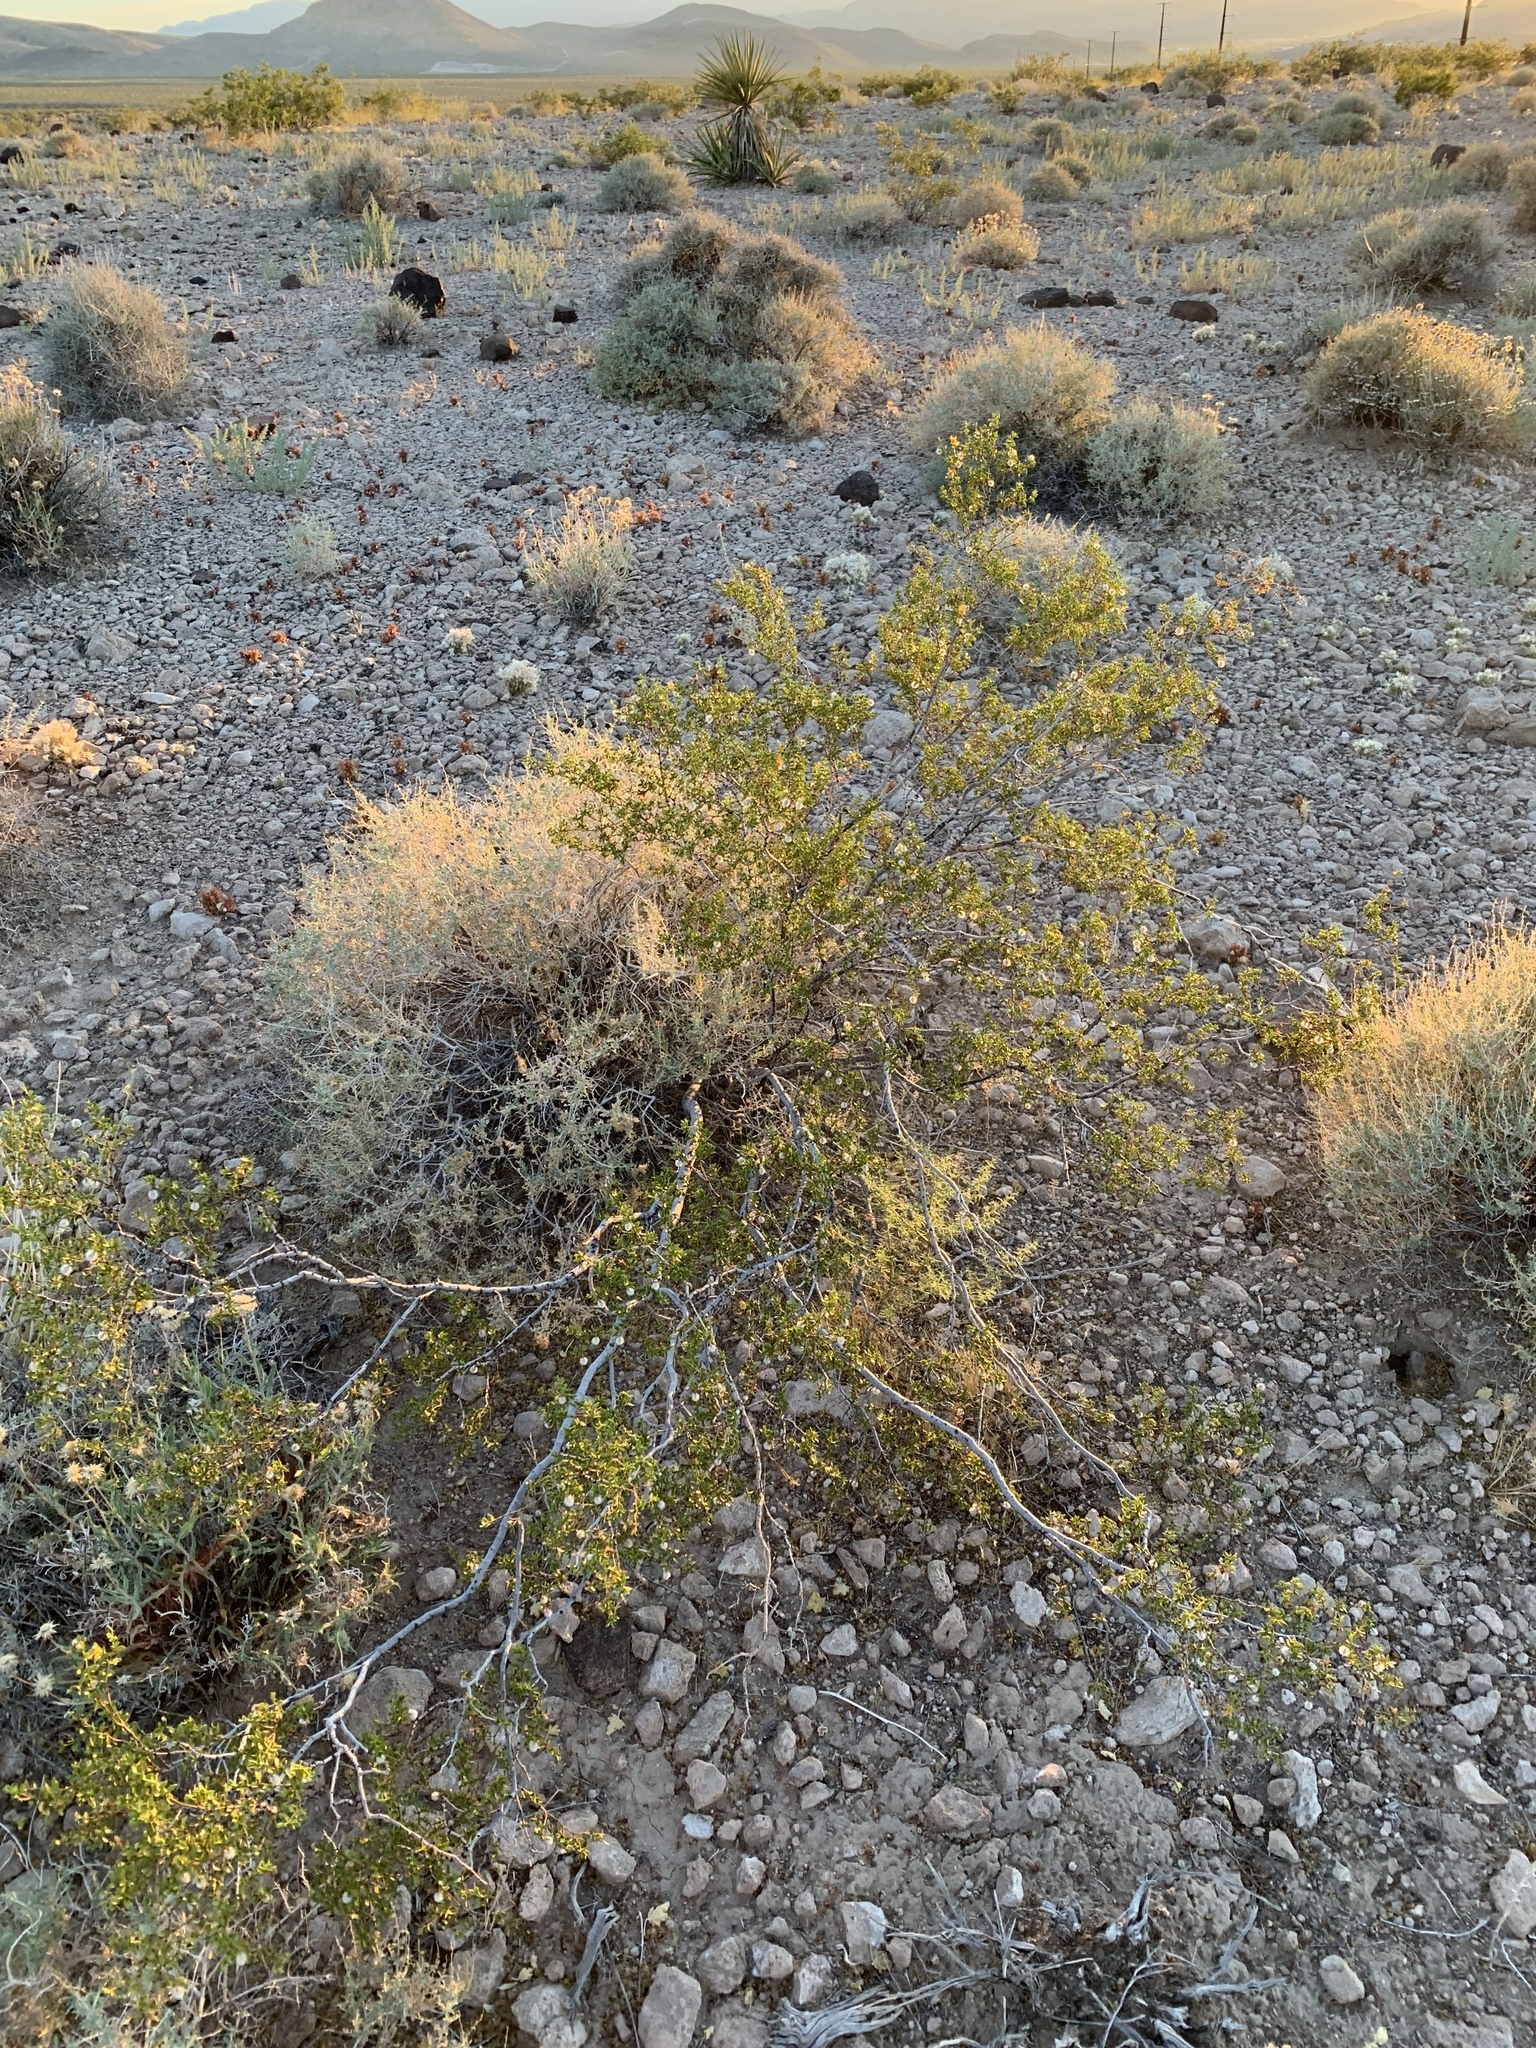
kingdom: Plantae
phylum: Tracheophyta
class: Magnoliopsida
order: Zygophyllales
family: Zygophyllaceae
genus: Larrea
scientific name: Larrea tridentata
